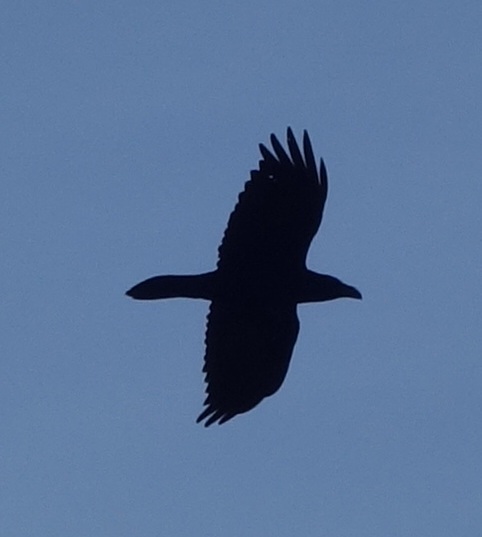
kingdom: Animalia
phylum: Chordata
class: Aves
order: Passeriformes
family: Corvidae
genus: Corvus
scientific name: Corvus corax
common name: Common raven
